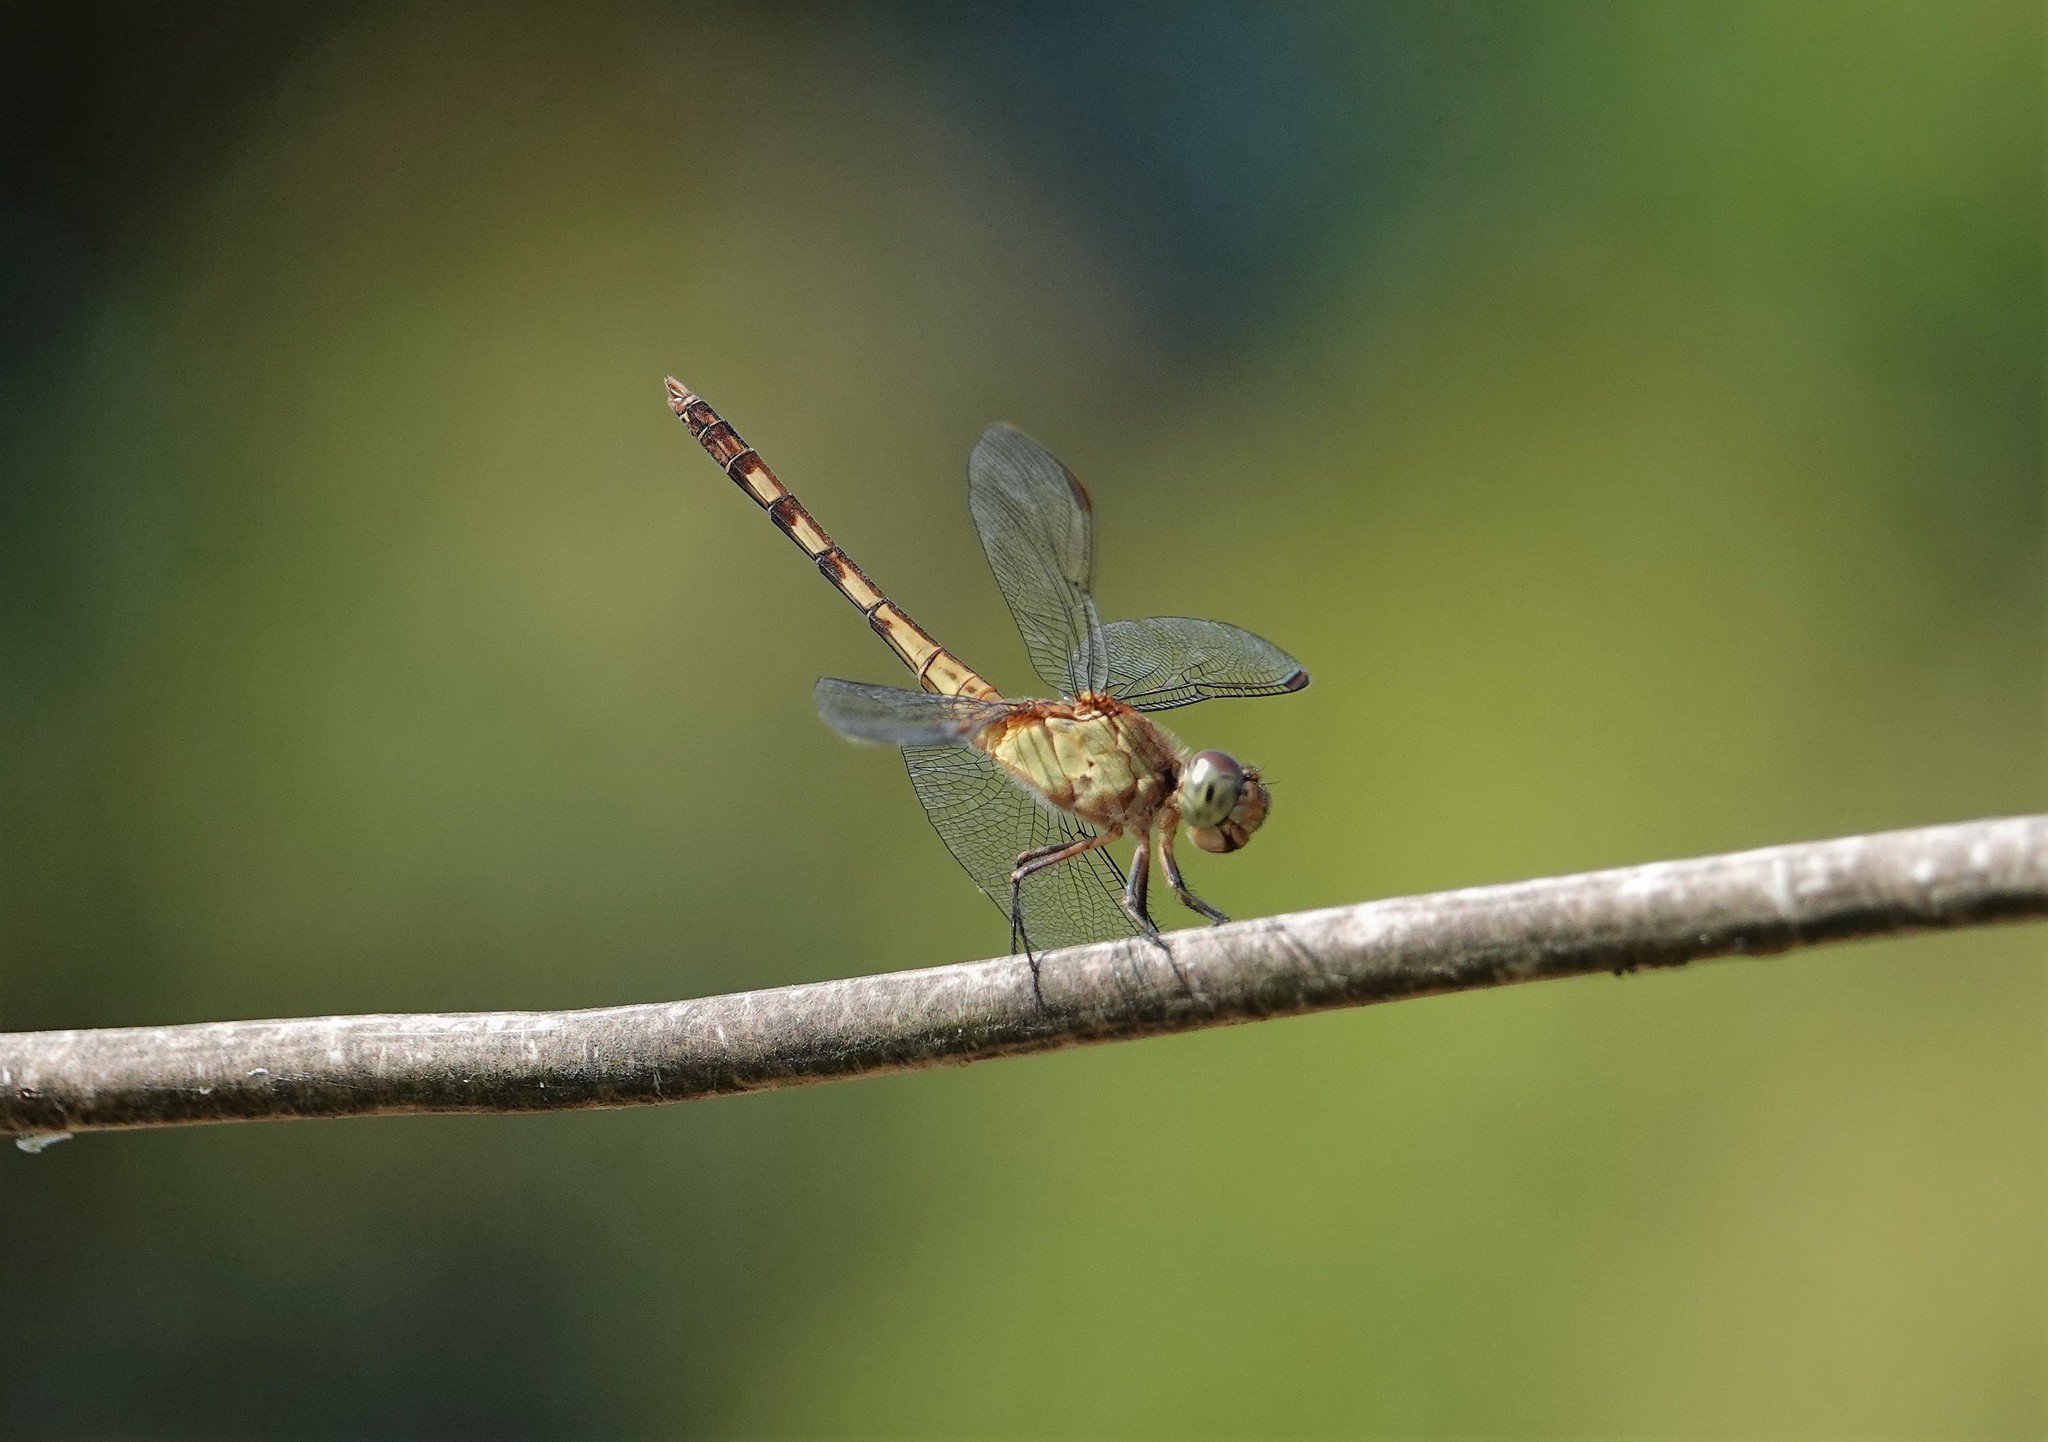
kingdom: Animalia
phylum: Arthropoda
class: Insecta
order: Odonata
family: Libellulidae
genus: Erythrodiplax
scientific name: Erythrodiplax umbrata
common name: Band-winged dragonlet
